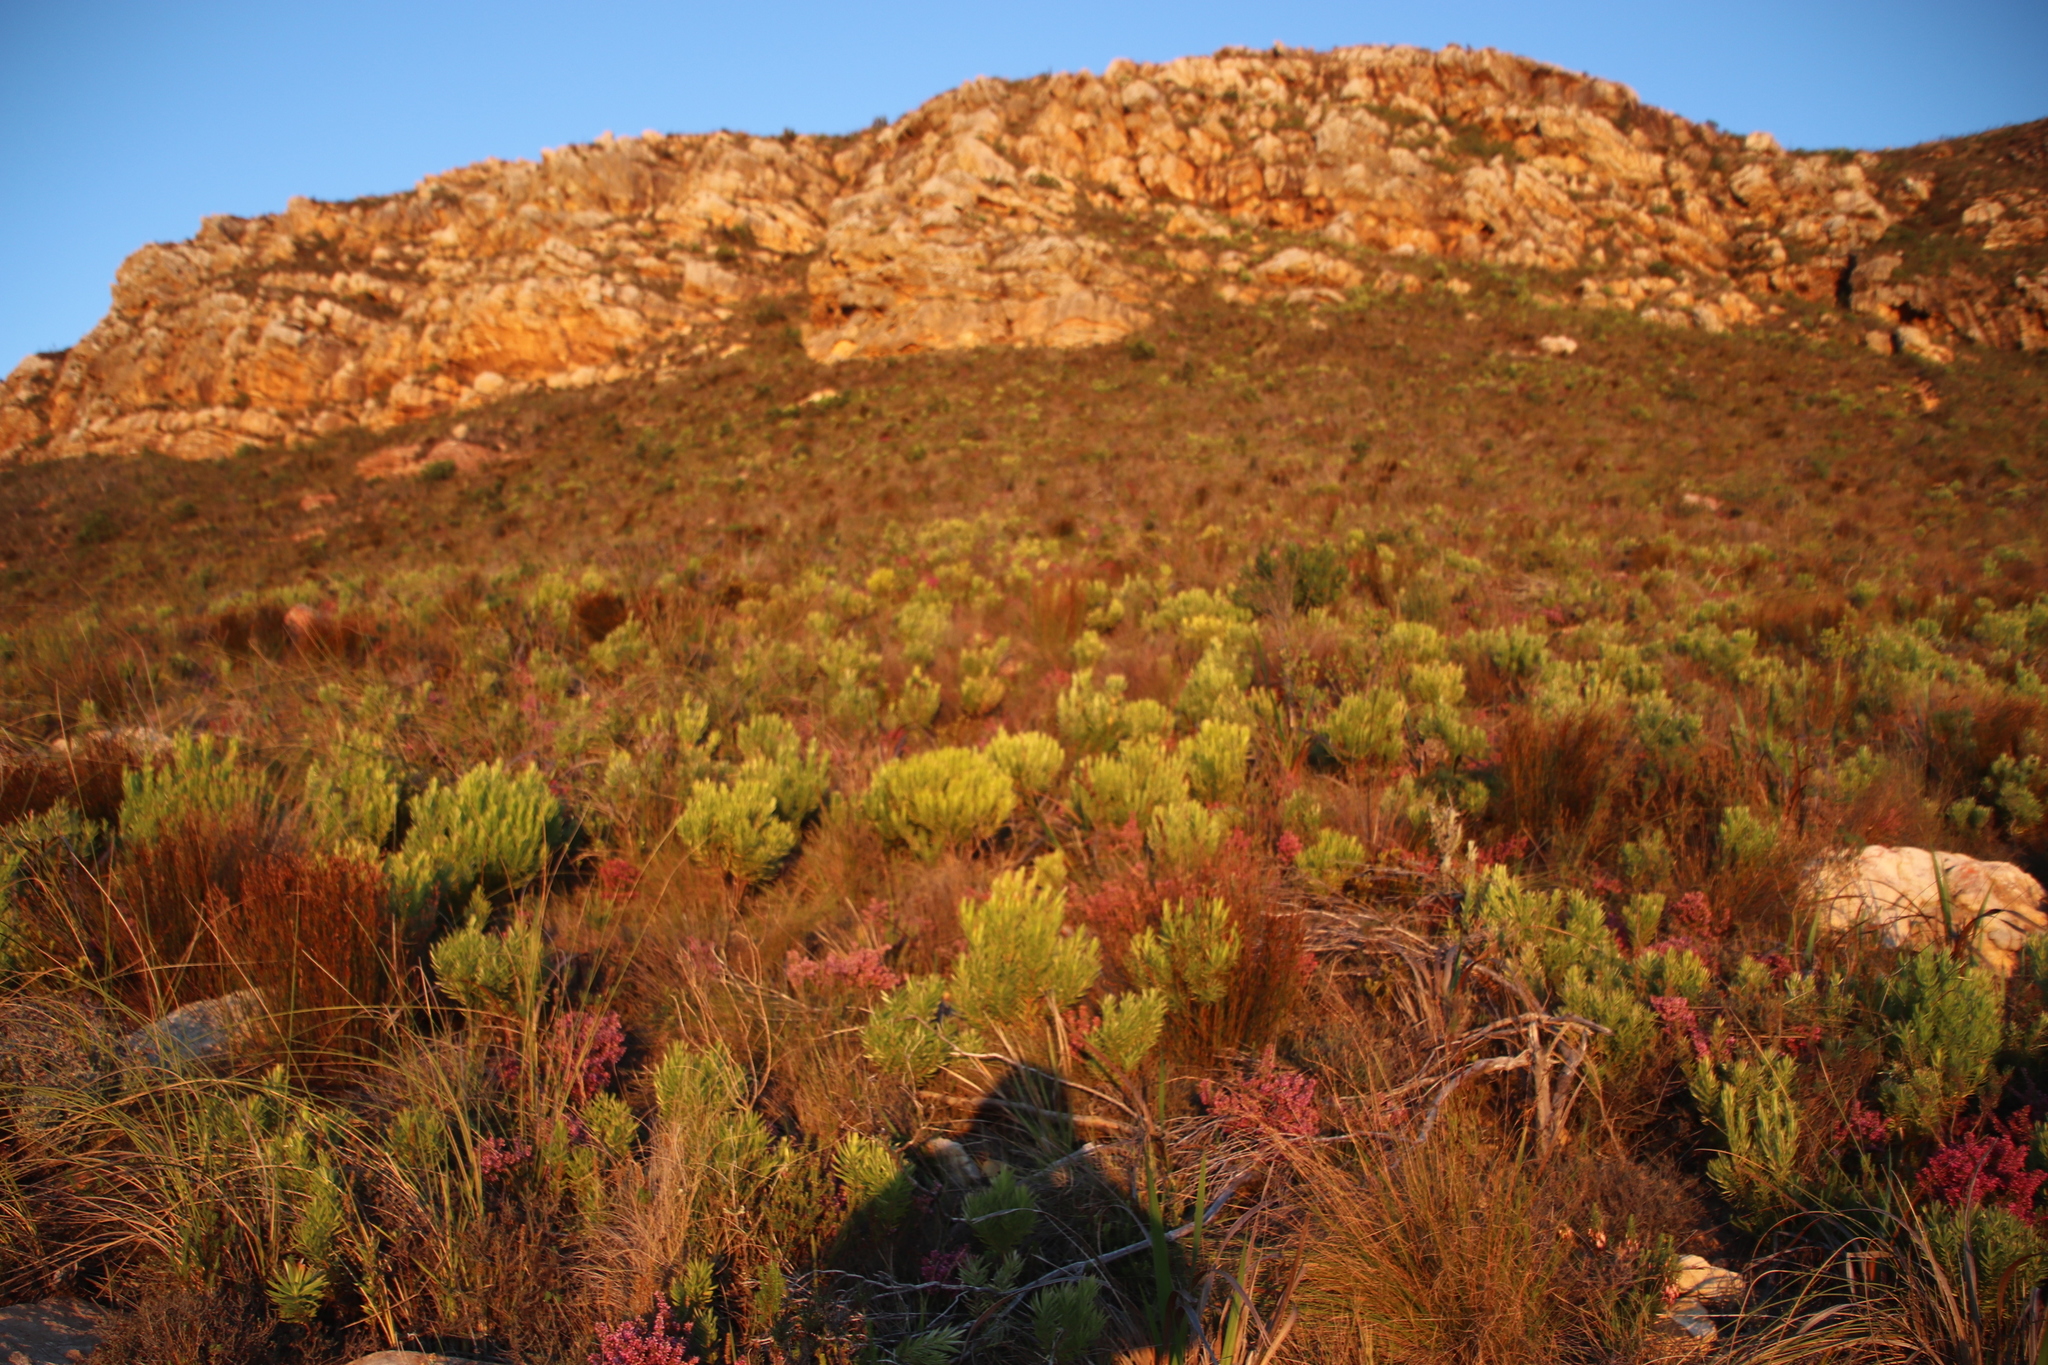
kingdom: Plantae
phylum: Tracheophyta
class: Magnoliopsida
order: Proteales
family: Proteaceae
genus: Leucadendron
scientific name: Leucadendron xanthoconus
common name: Sickle-leaf conebush
